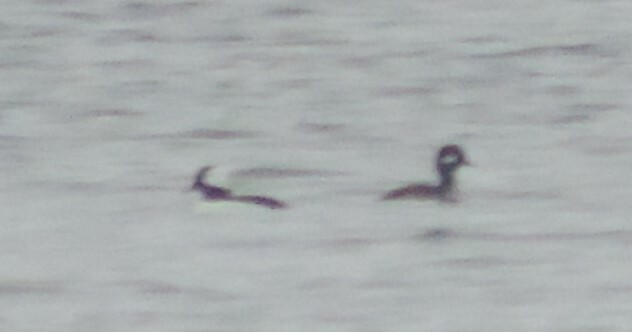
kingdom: Animalia
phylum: Chordata
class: Aves
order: Anseriformes
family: Anatidae
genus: Bucephala
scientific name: Bucephala albeola
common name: Bufflehead
